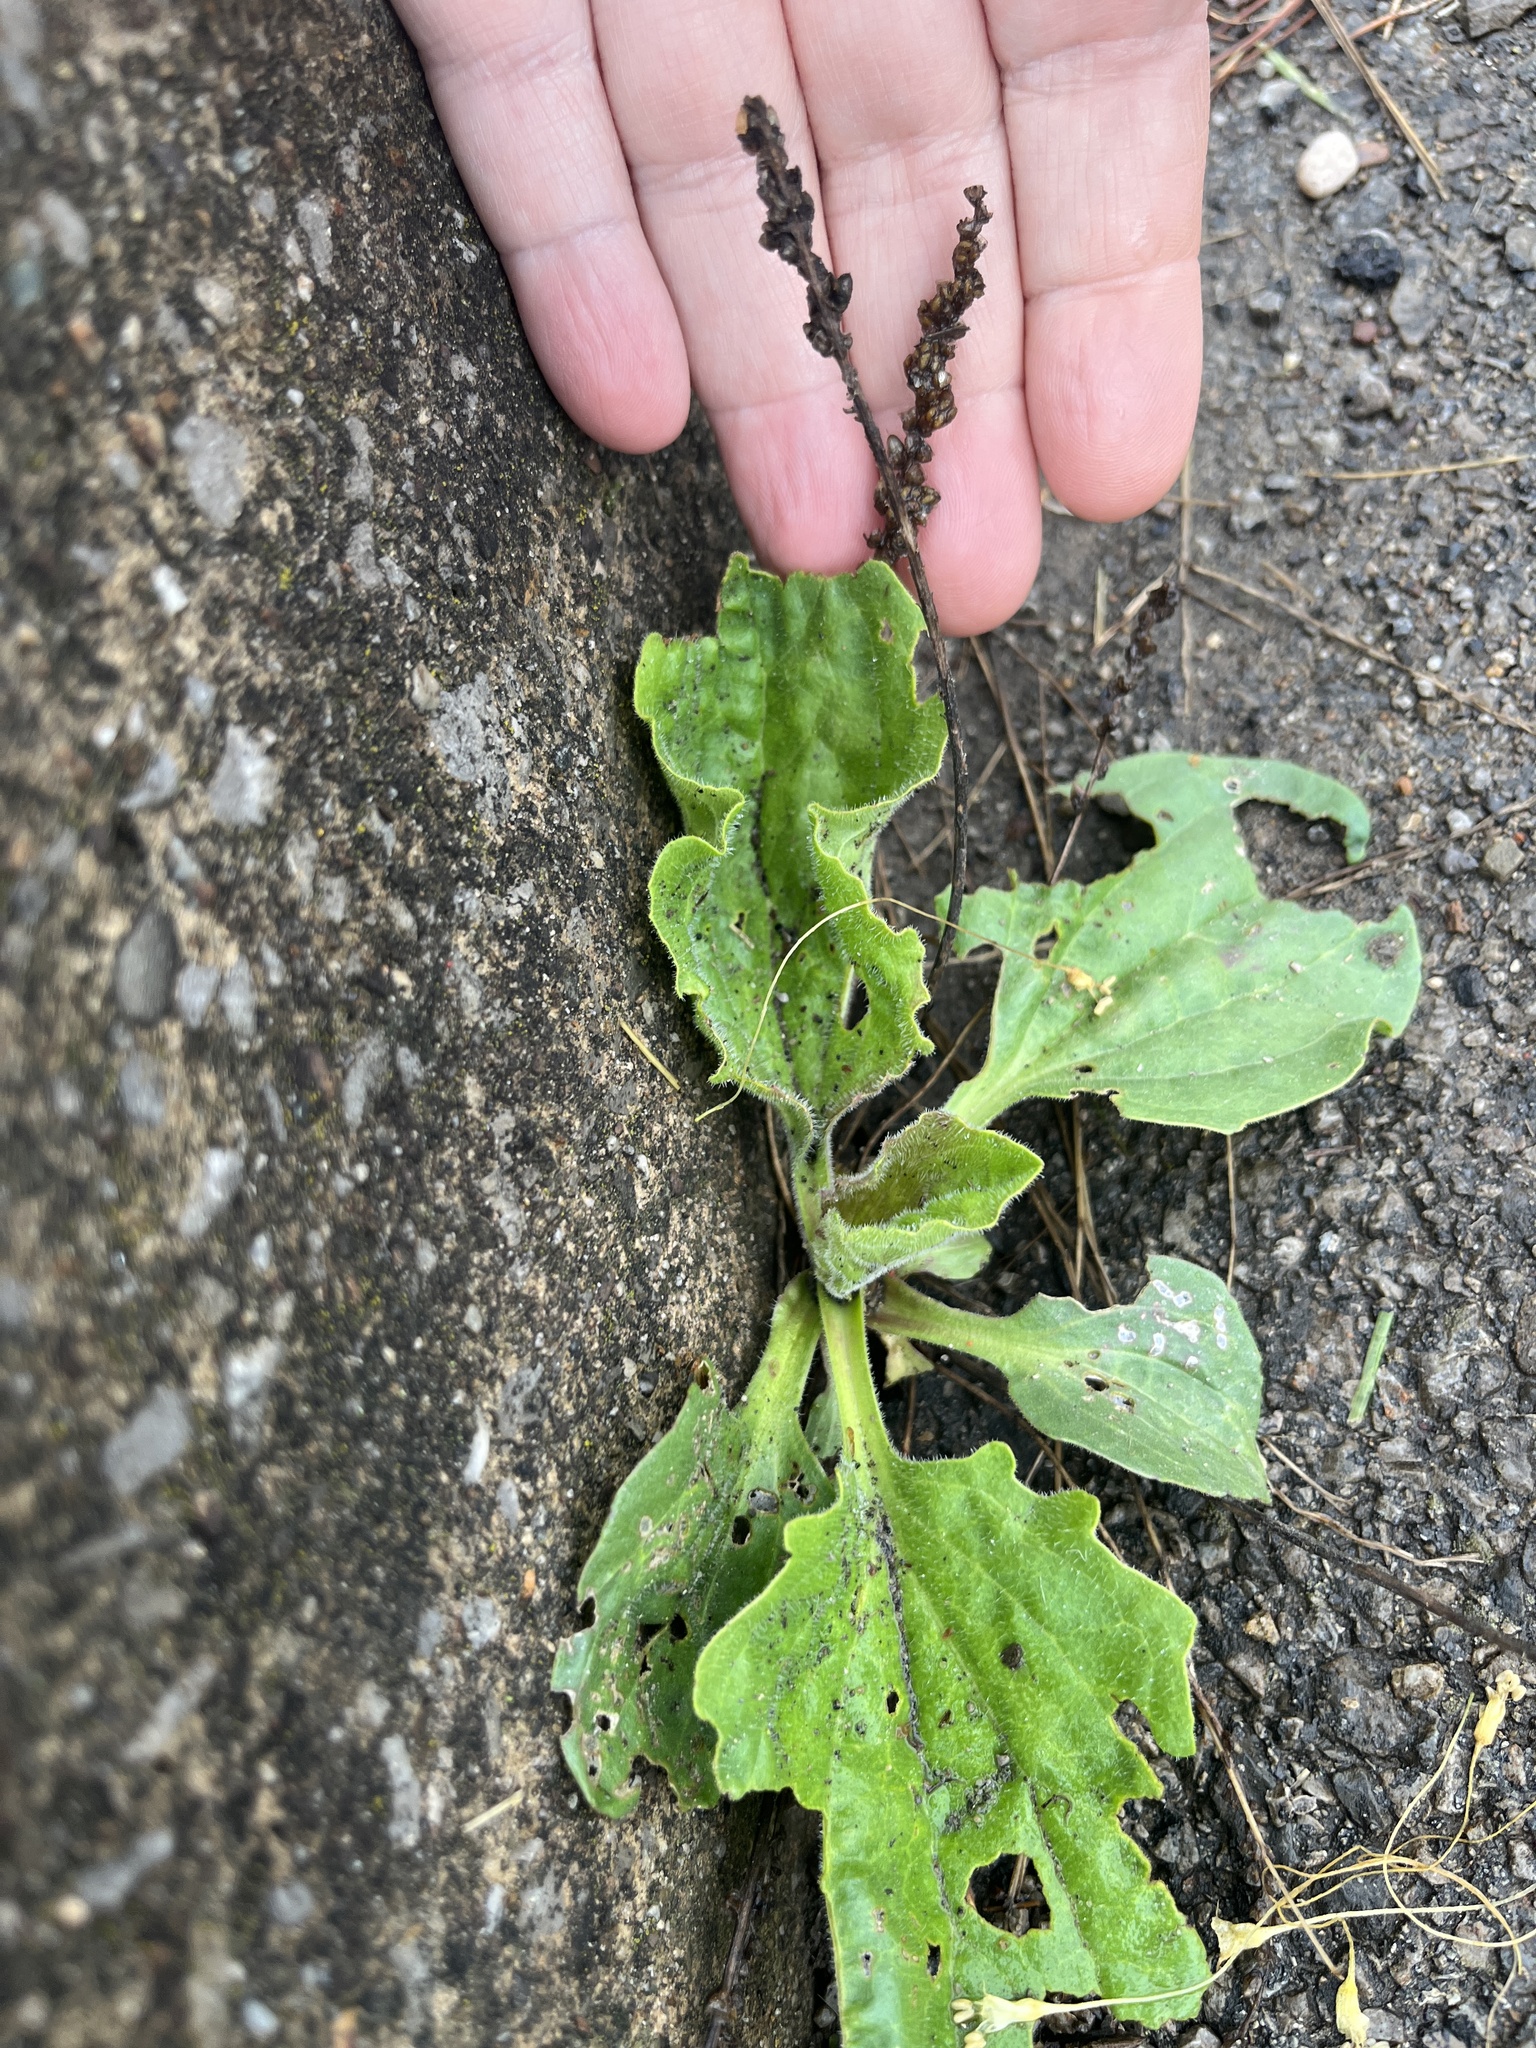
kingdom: Plantae
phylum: Tracheophyta
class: Magnoliopsida
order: Lamiales
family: Plantaginaceae
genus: Plantago
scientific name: Plantago major
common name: Common plantain
